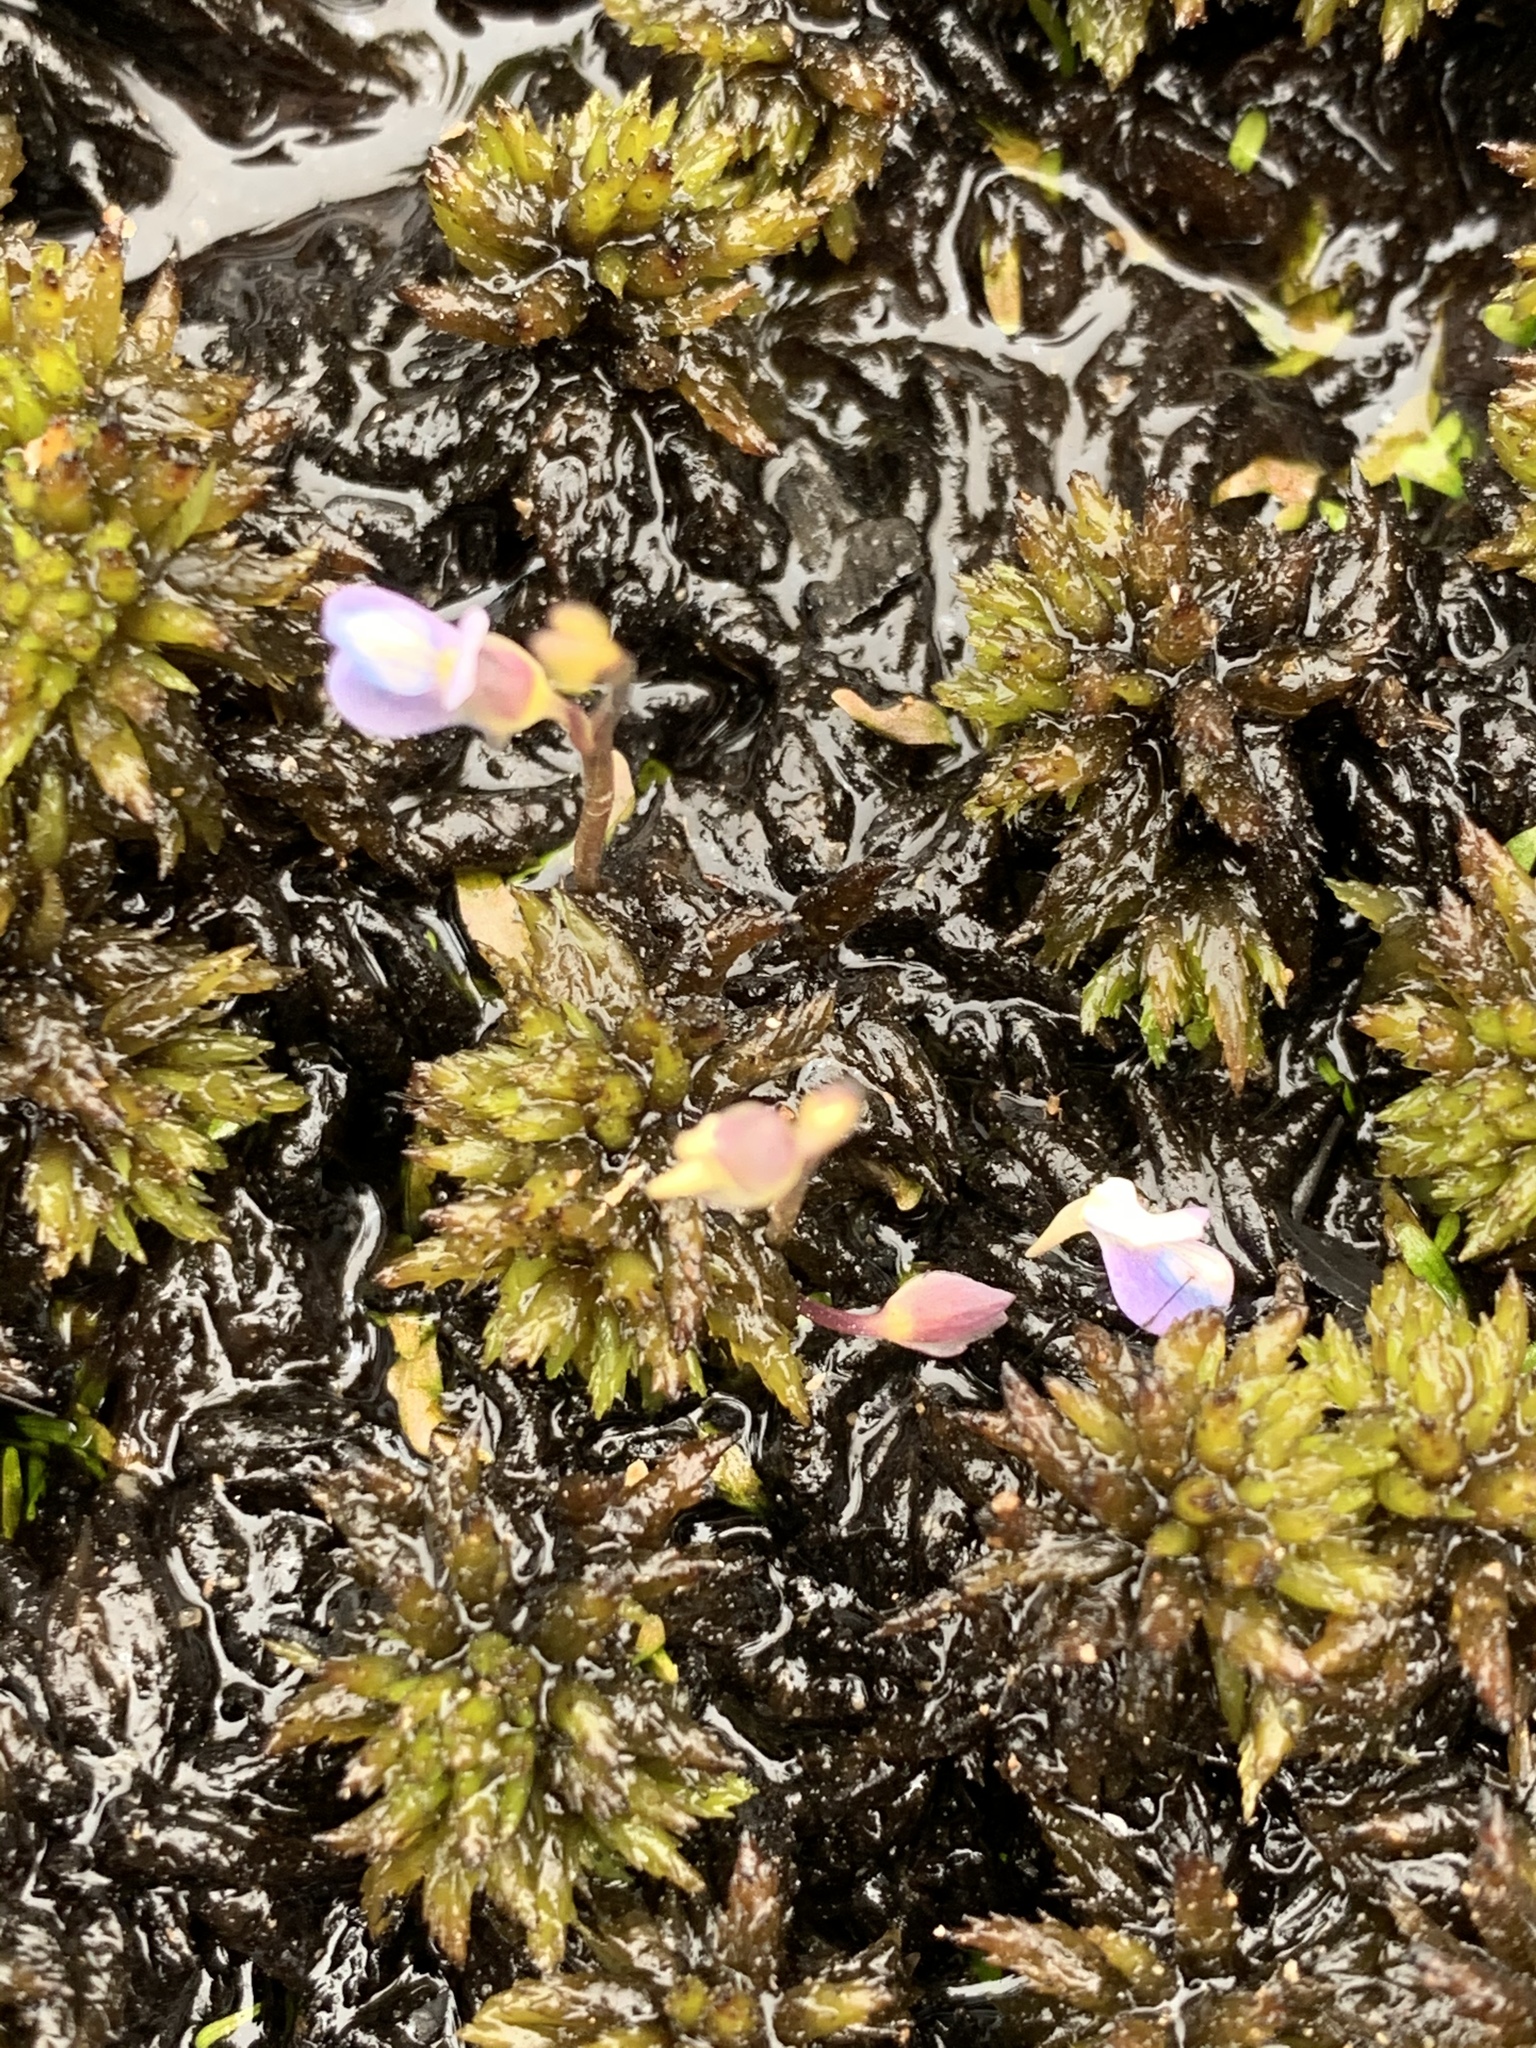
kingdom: Plantae
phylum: Tracheophyta
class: Magnoliopsida
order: Lamiales
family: Lentibulariaceae
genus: Utricularia
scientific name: Utricularia uliginosa
